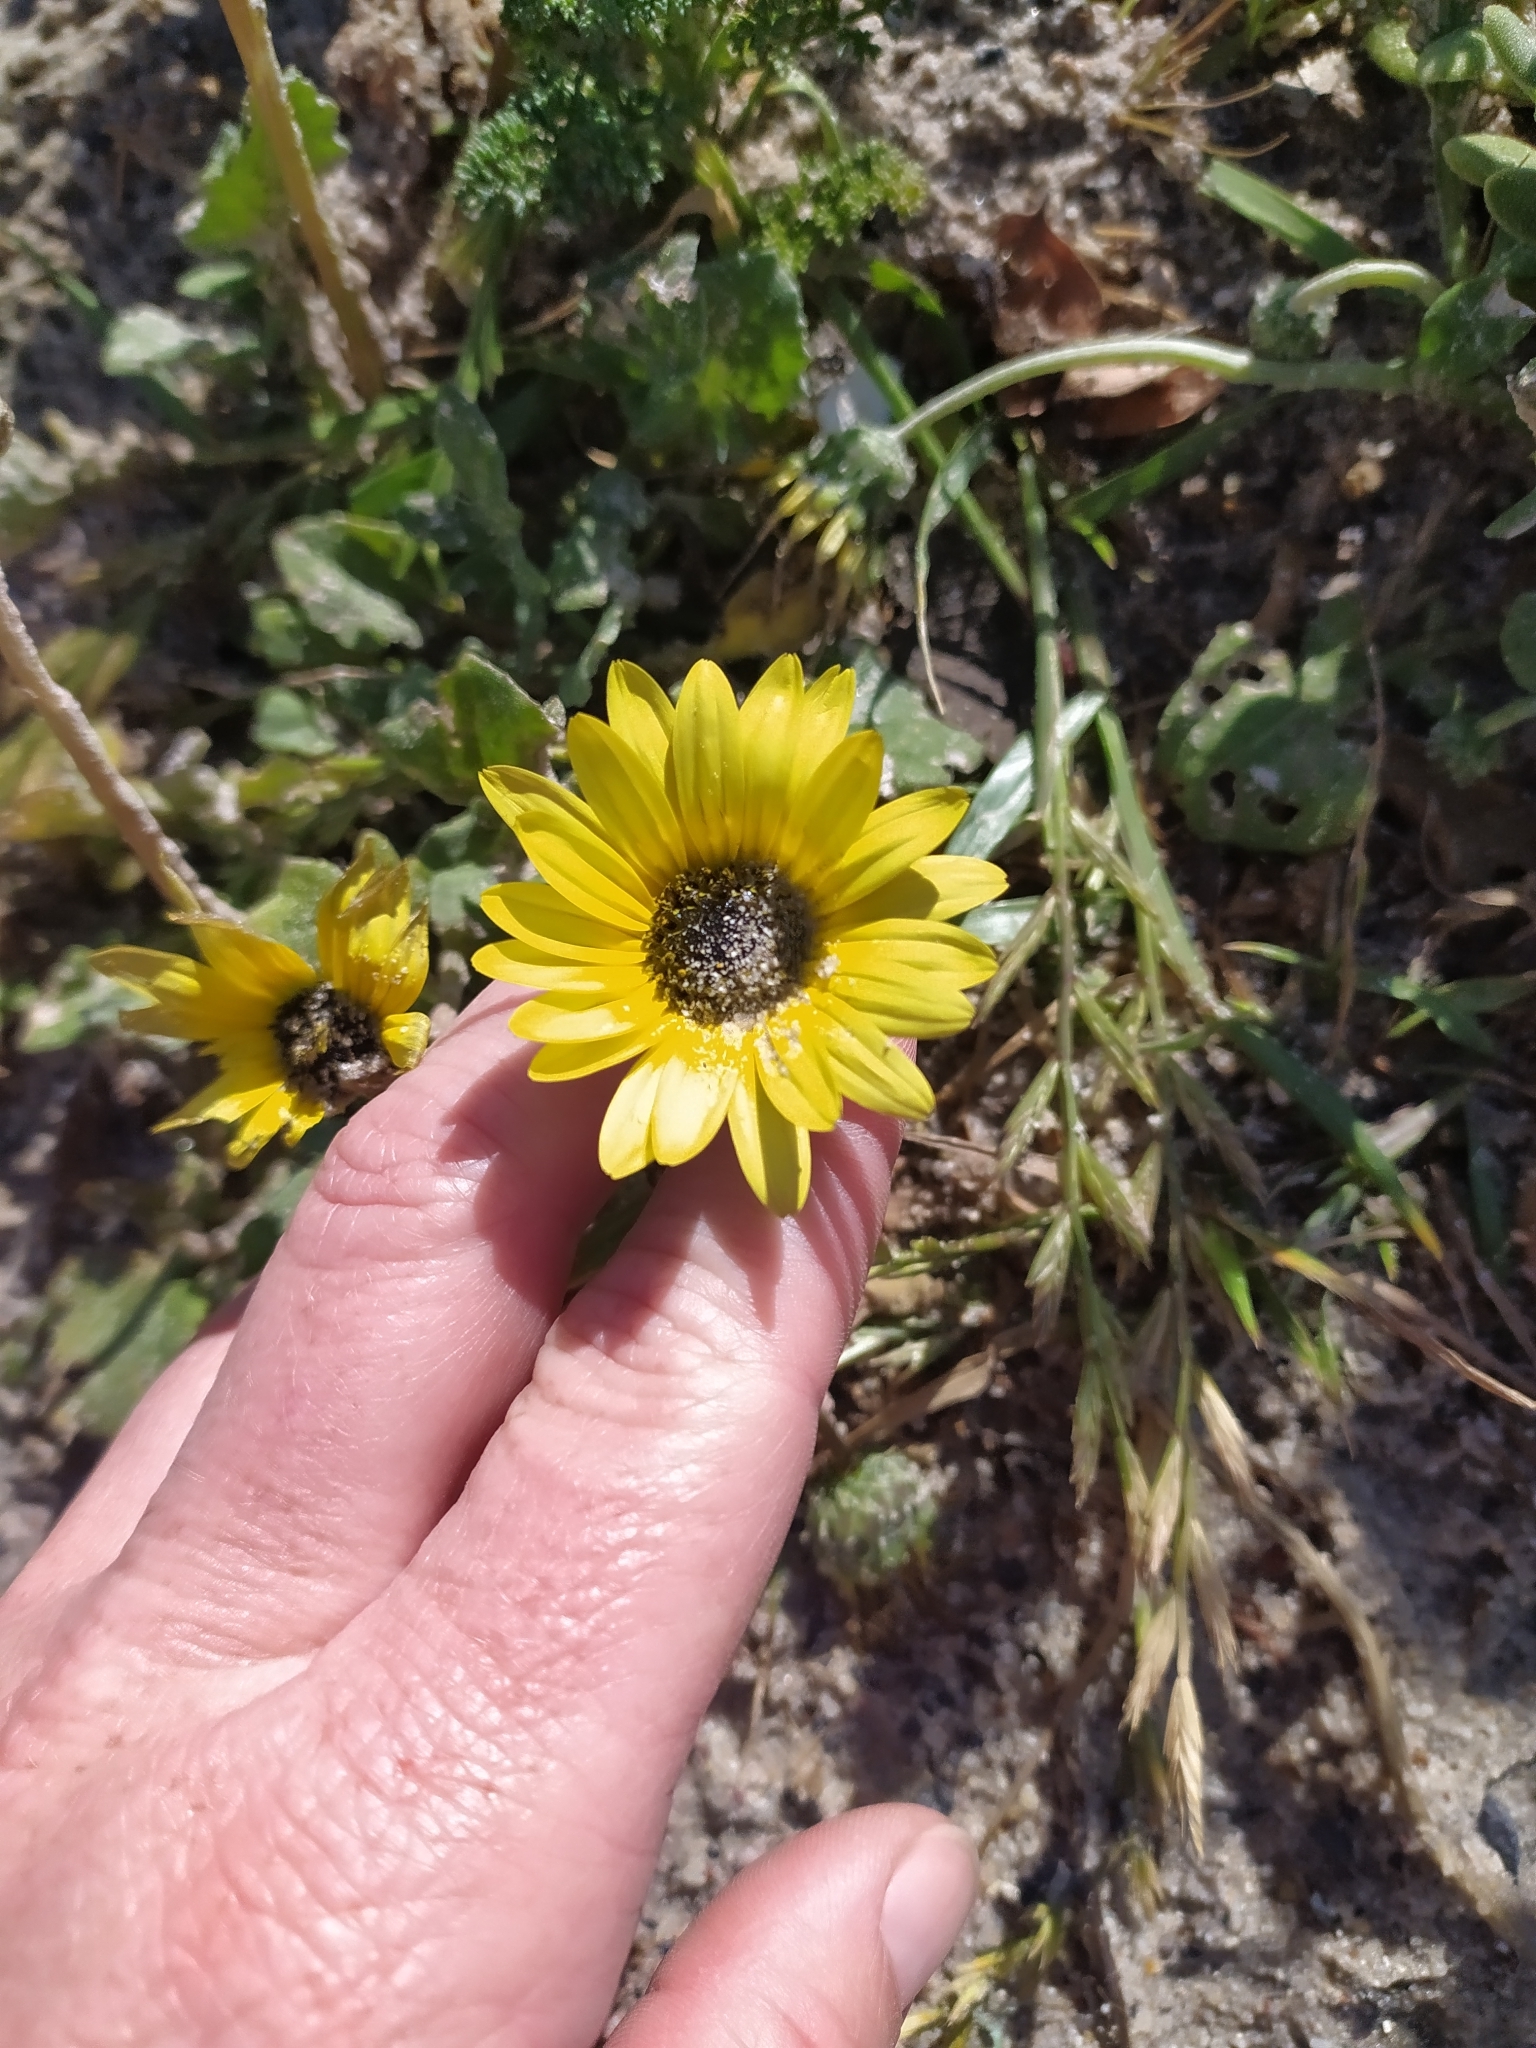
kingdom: Plantae
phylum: Tracheophyta
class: Magnoliopsida
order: Asterales
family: Asteraceae
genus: Arctotheca
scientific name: Arctotheca calendula
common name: Capeweed
